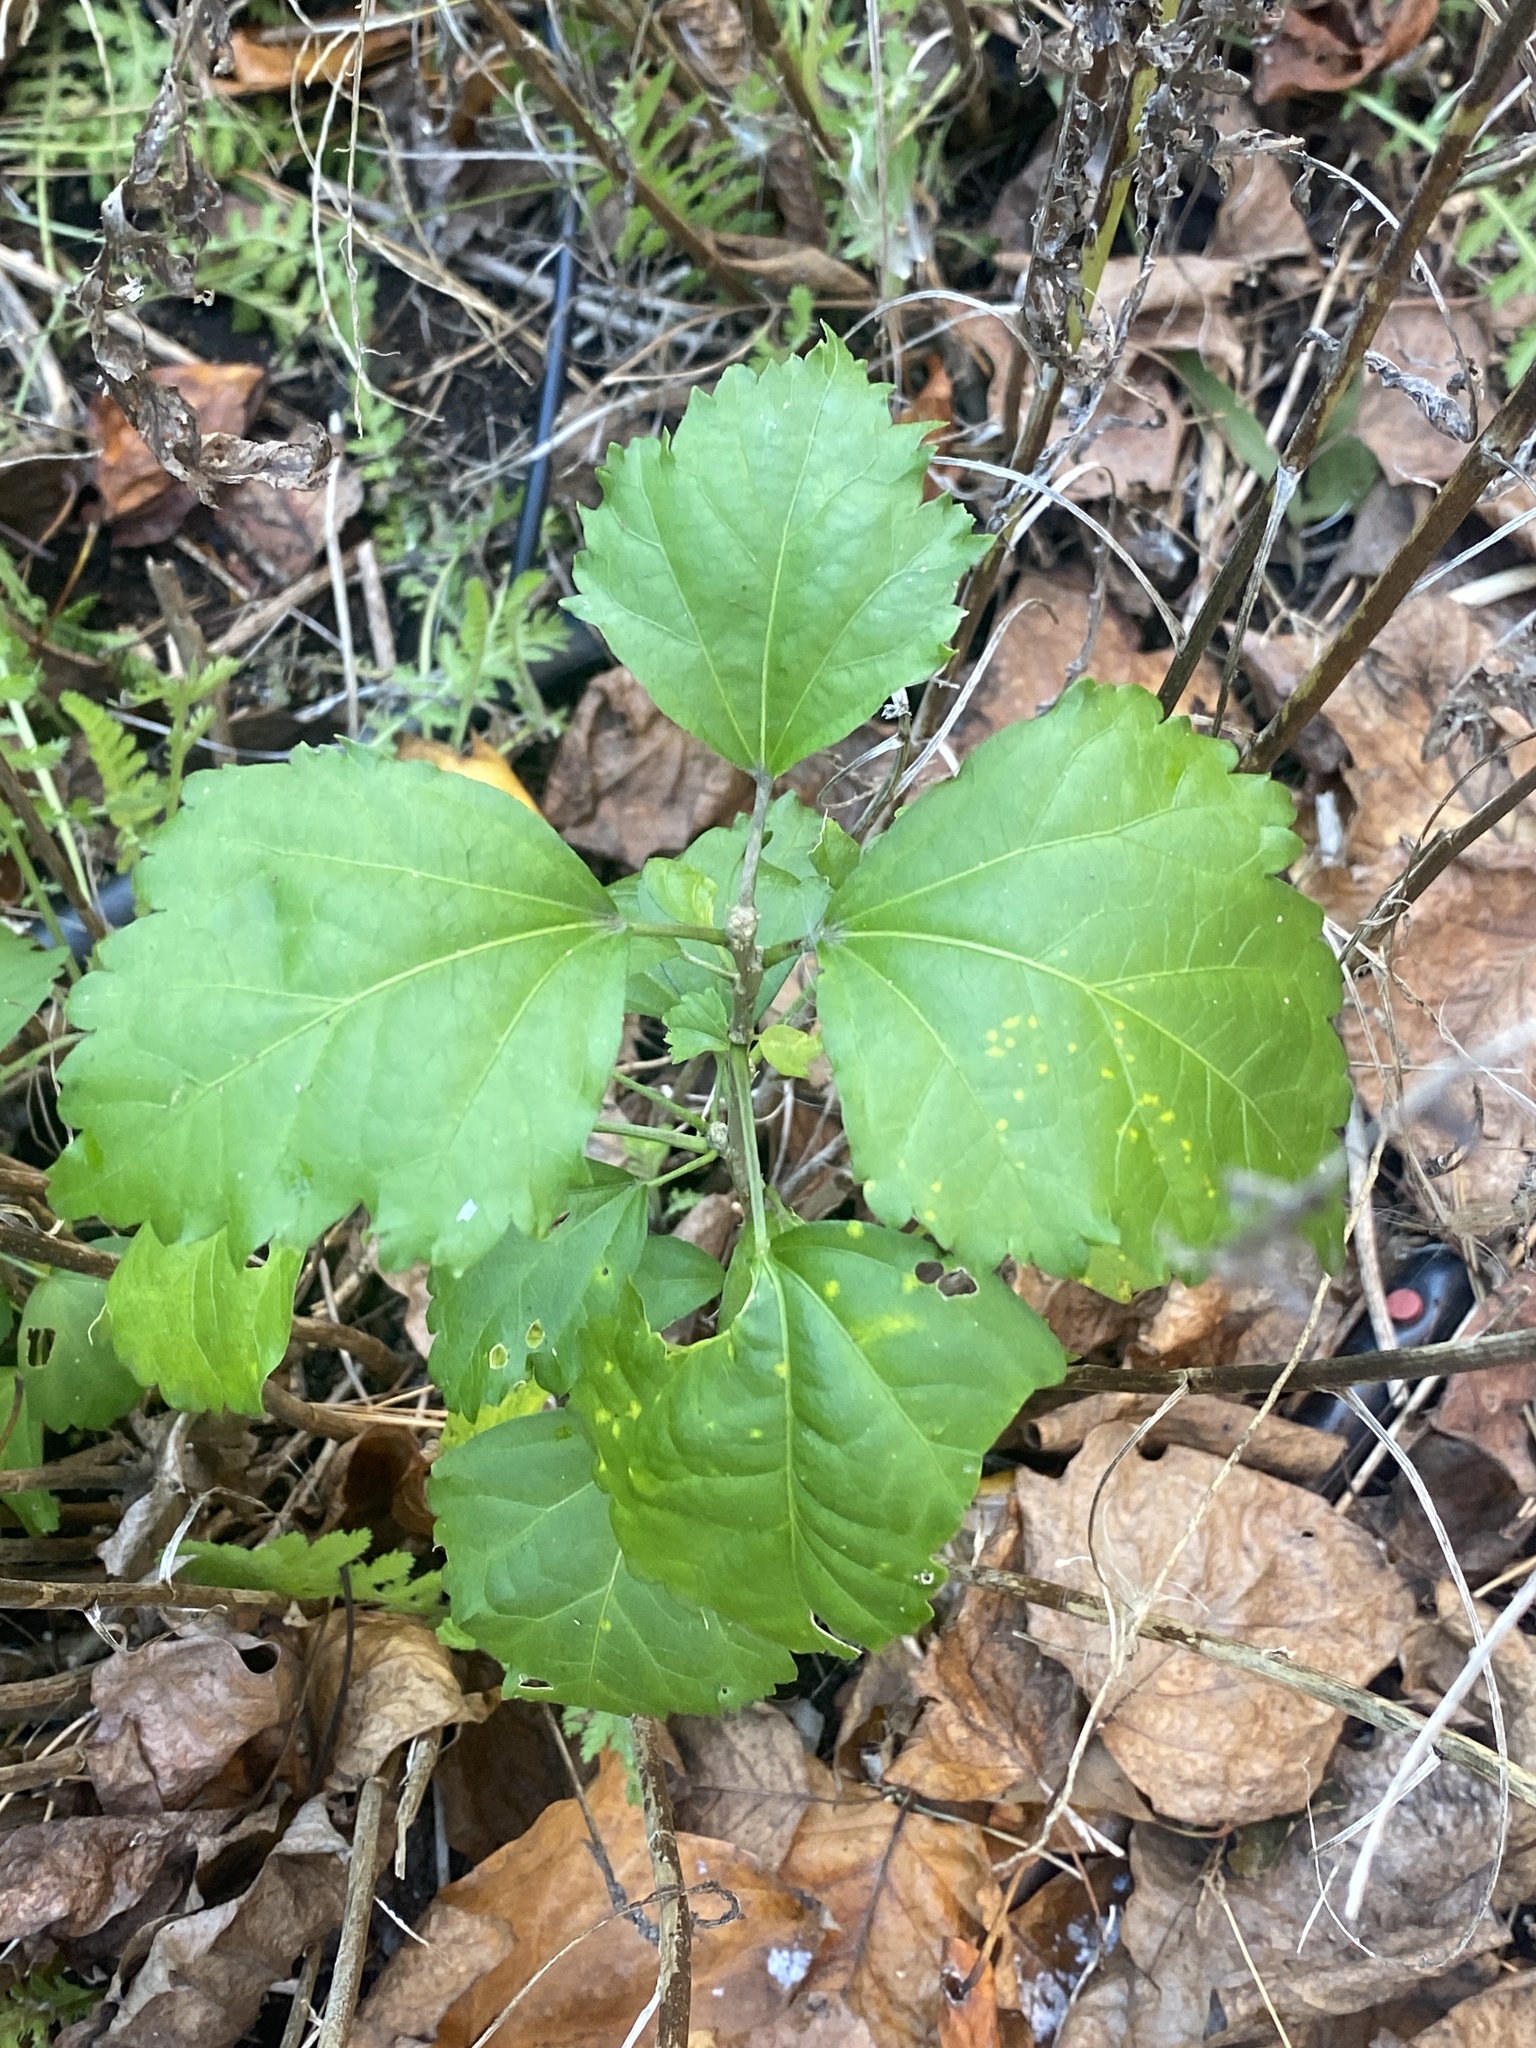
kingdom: Plantae
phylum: Tracheophyta
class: Magnoliopsida
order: Malvales
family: Malvaceae
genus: Hibiscus
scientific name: Hibiscus syriacus
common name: Syrian ketmia
